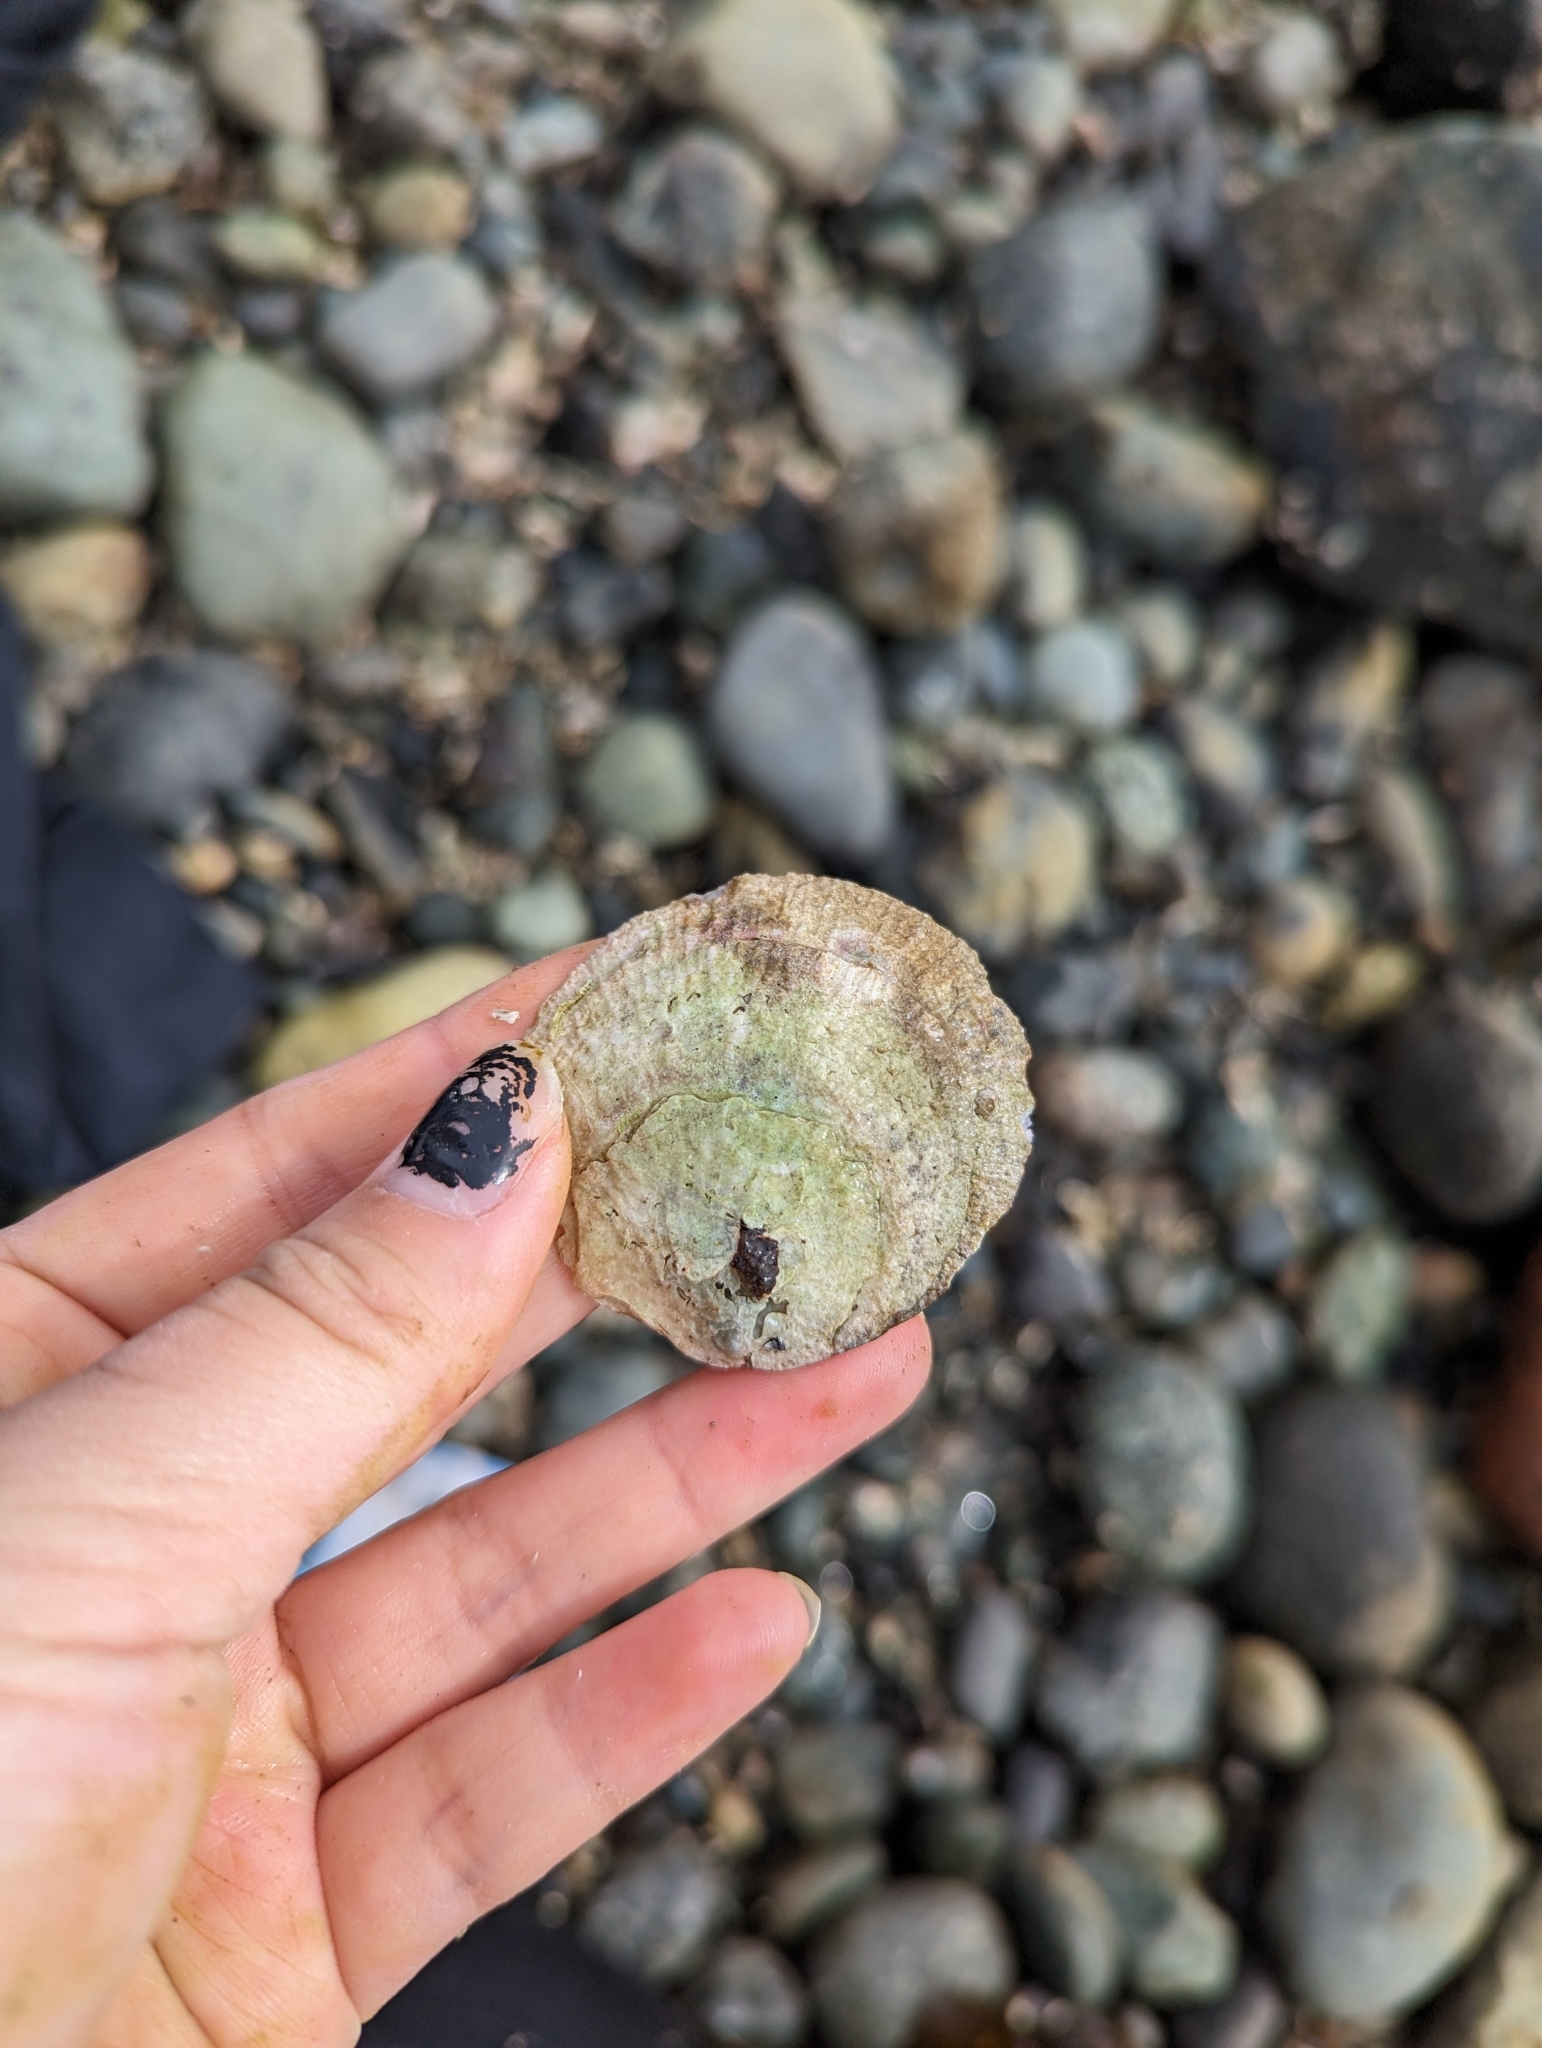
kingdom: Animalia
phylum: Mollusca
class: Bivalvia
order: Pectinida
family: Anomiidae
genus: Pododesmus
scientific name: Pododesmus macrochisma
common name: Alaska jingle
